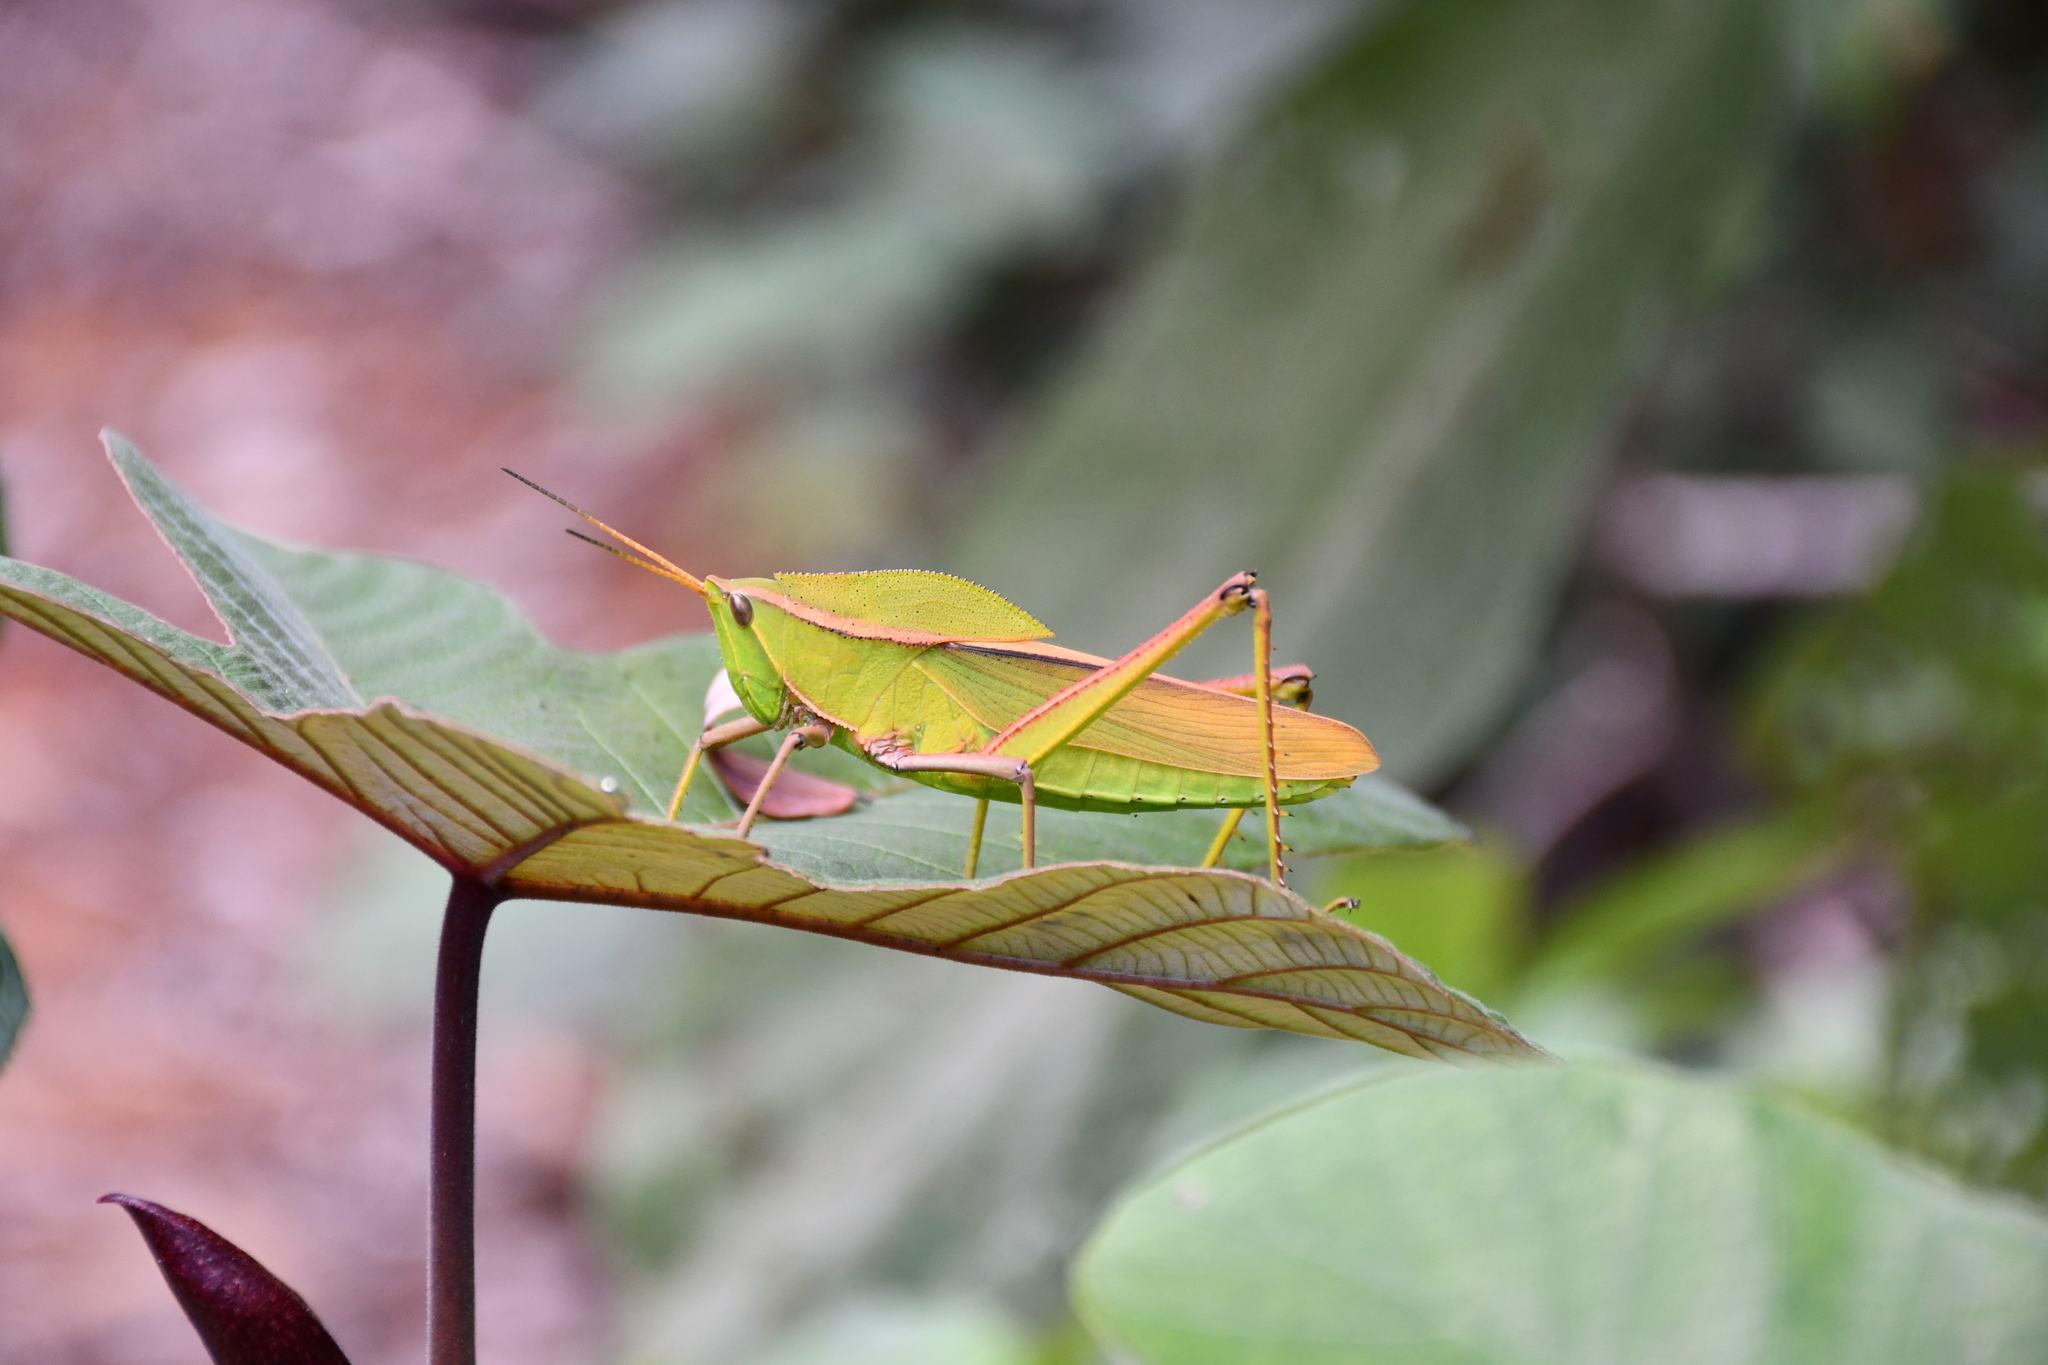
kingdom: Animalia
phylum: Arthropoda
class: Insecta
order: Orthoptera
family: Romaleidae
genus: Prionolopha
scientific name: Prionolopha serrata
